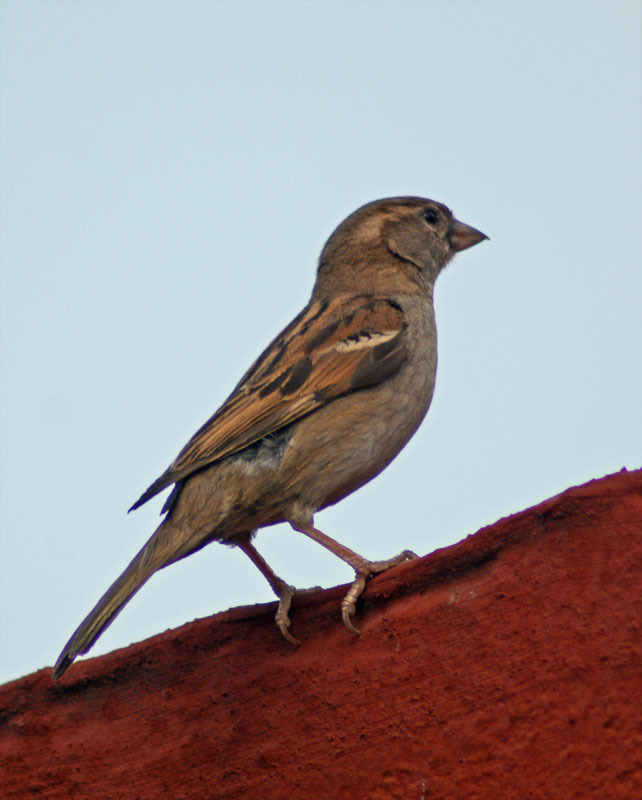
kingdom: Animalia
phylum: Chordata
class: Aves
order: Passeriformes
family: Passeridae
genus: Passer
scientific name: Passer domesticus
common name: House sparrow
